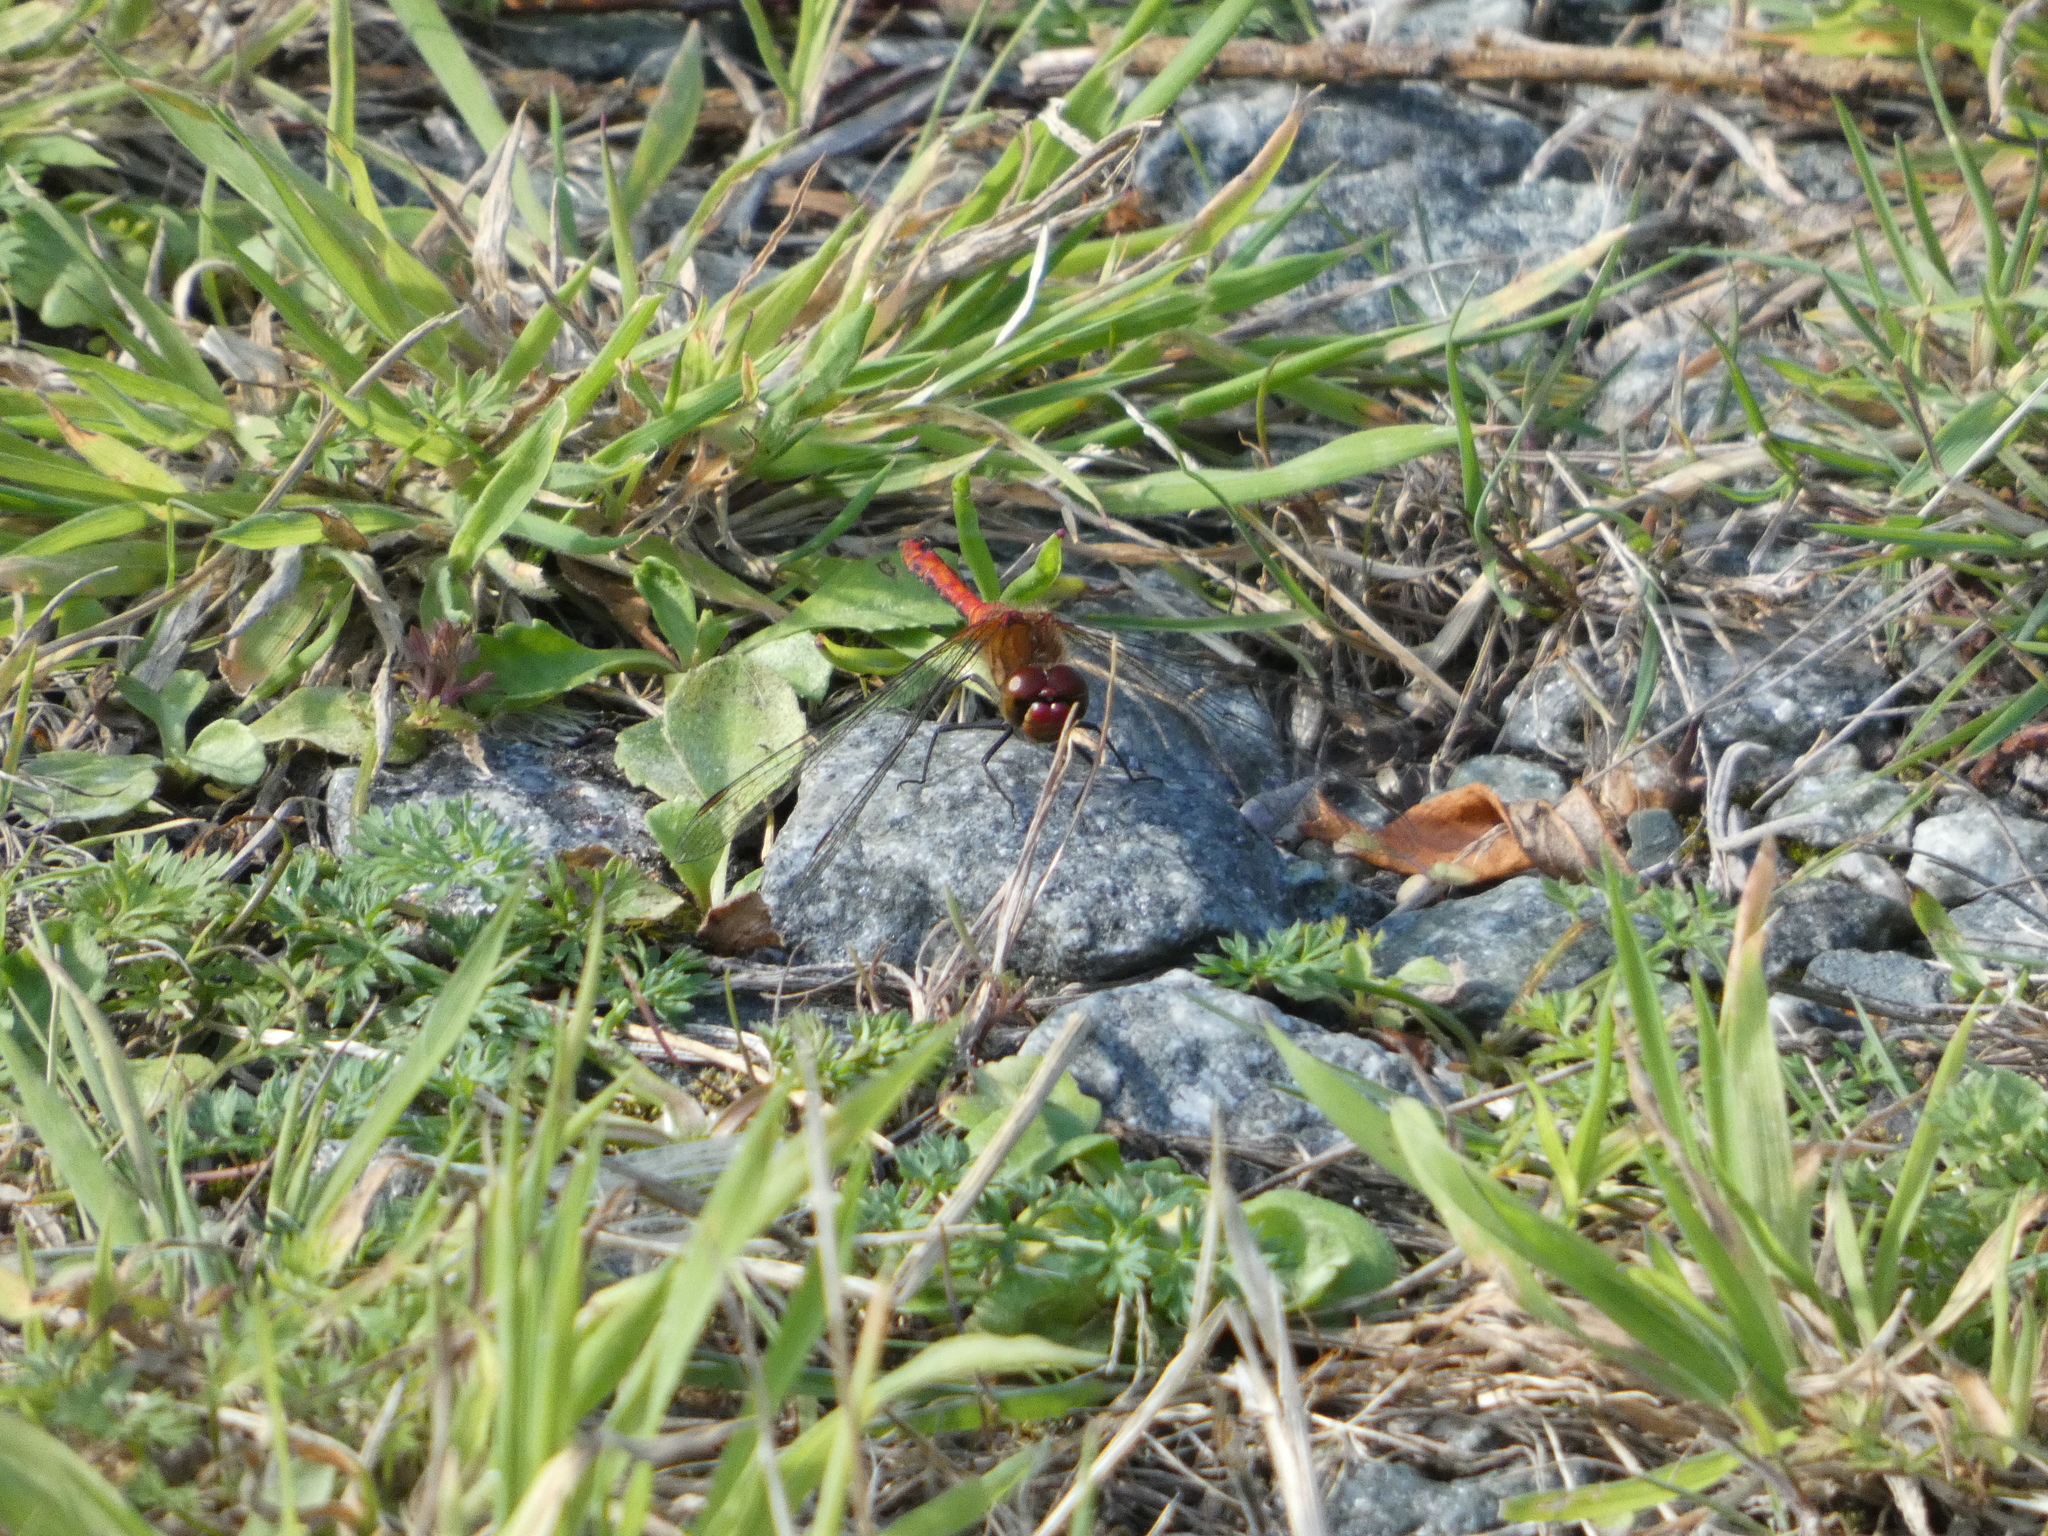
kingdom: Animalia
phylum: Arthropoda
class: Insecta
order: Odonata
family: Libellulidae
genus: Sympetrum
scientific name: Sympetrum sanguineum
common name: Ruddy darter
